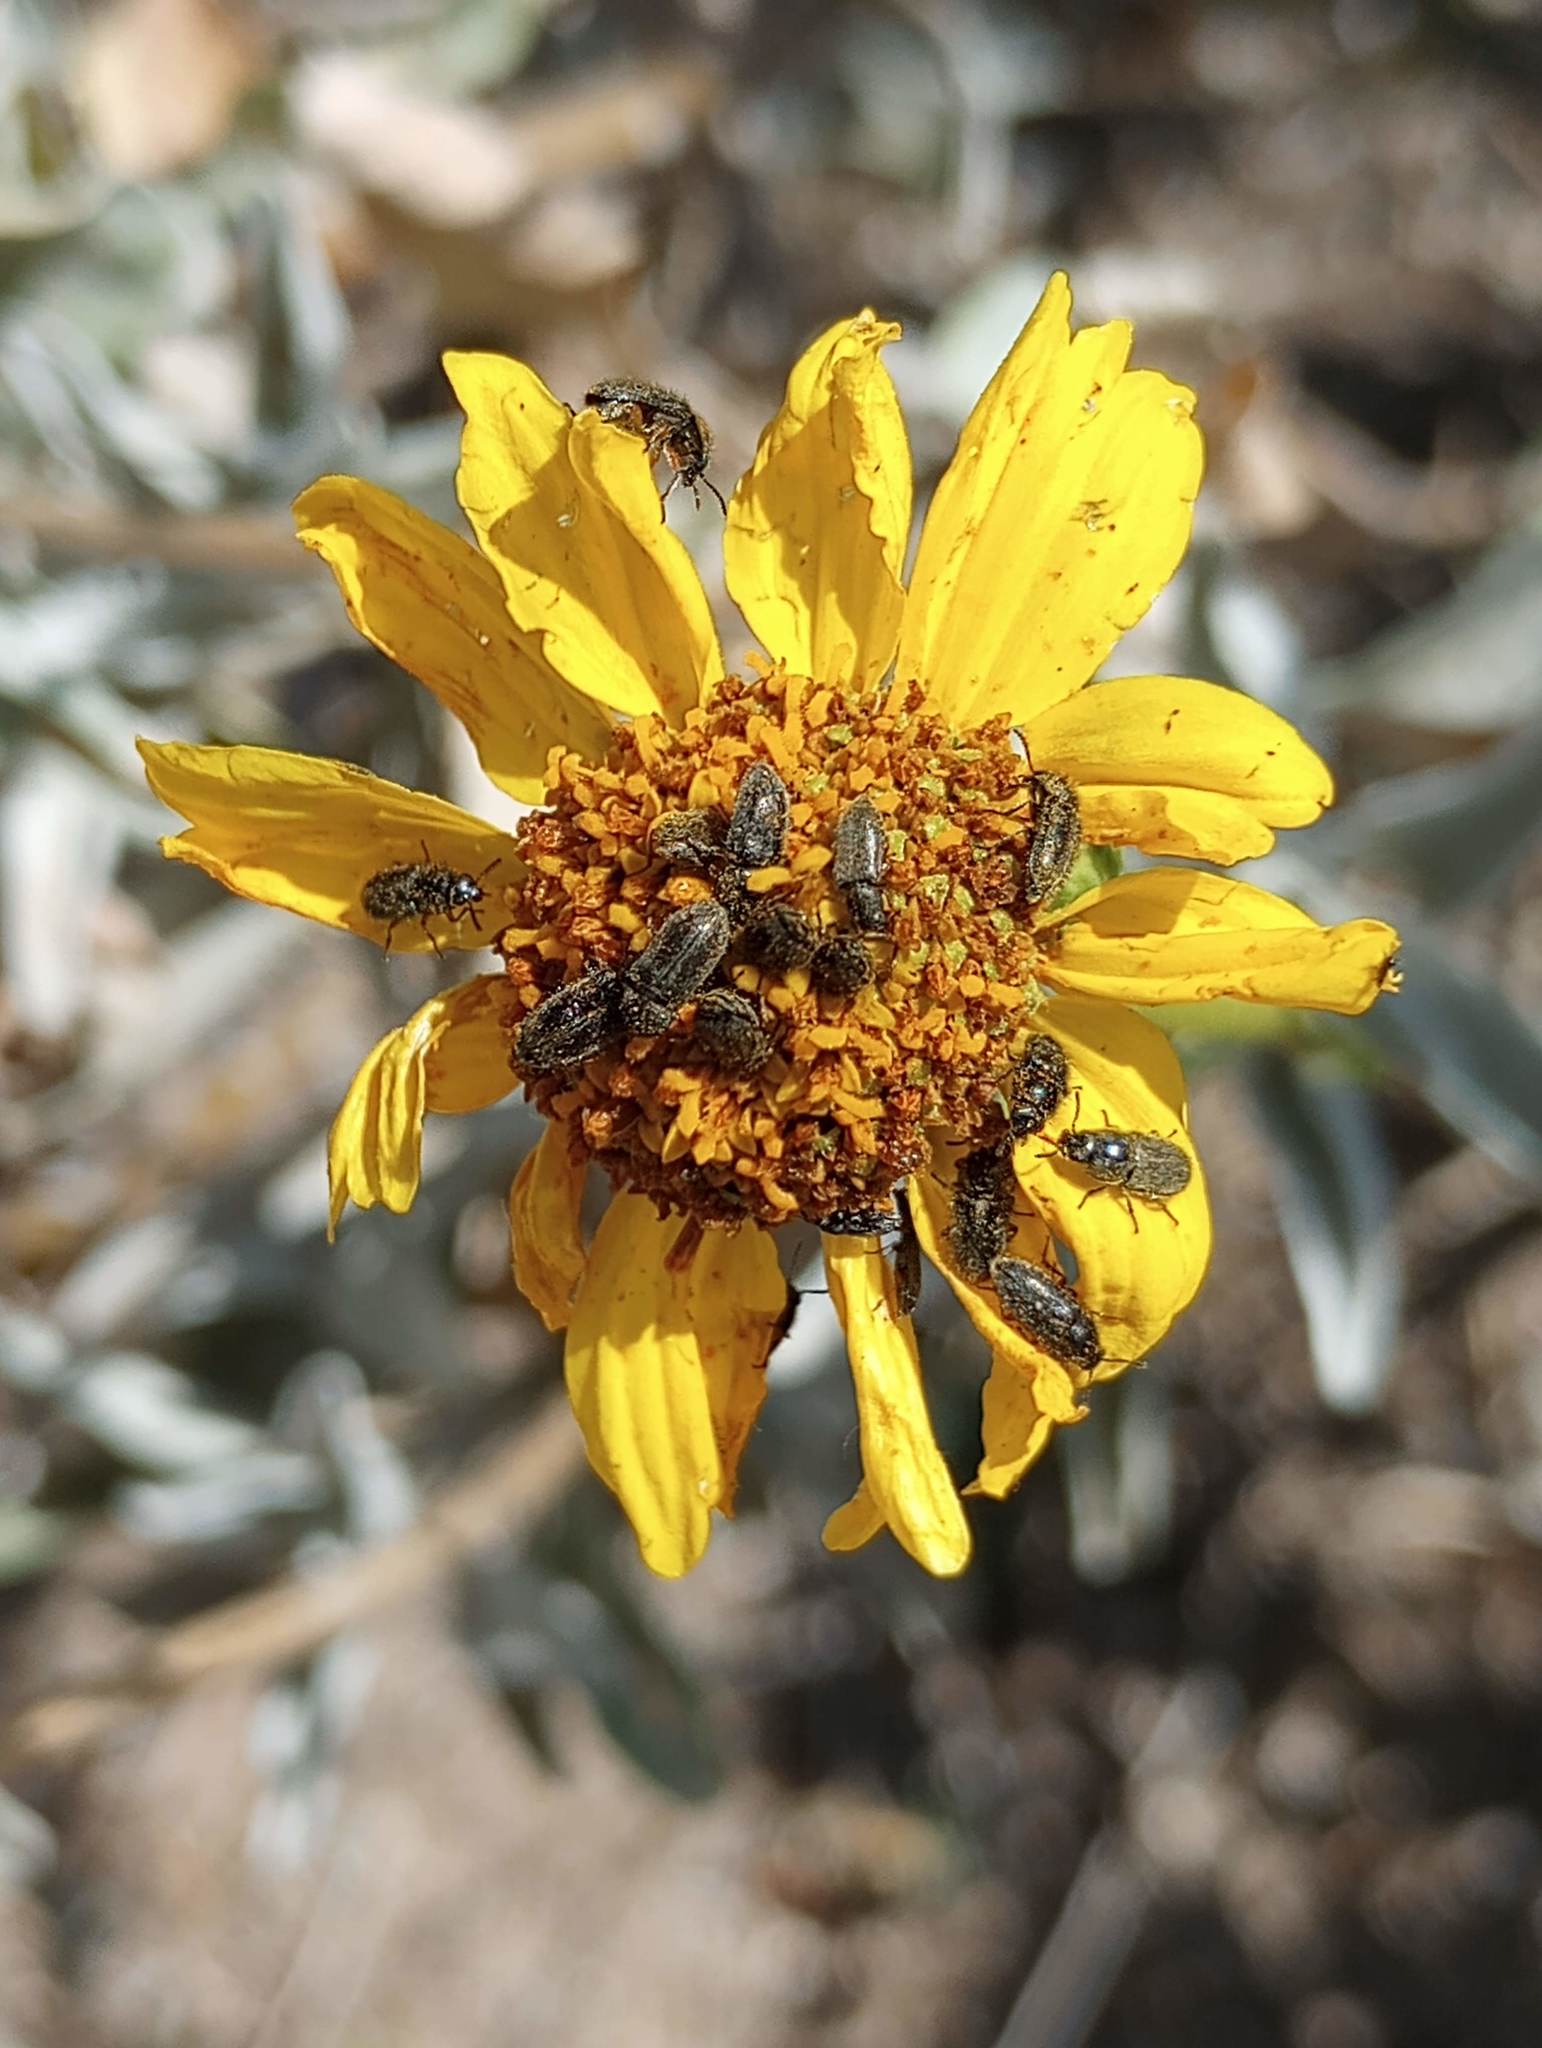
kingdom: Plantae
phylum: Tracheophyta
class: Magnoliopsida
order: Asterales
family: Asteraceae
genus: Encelia
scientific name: Encelia farinosa
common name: Brittlebush
